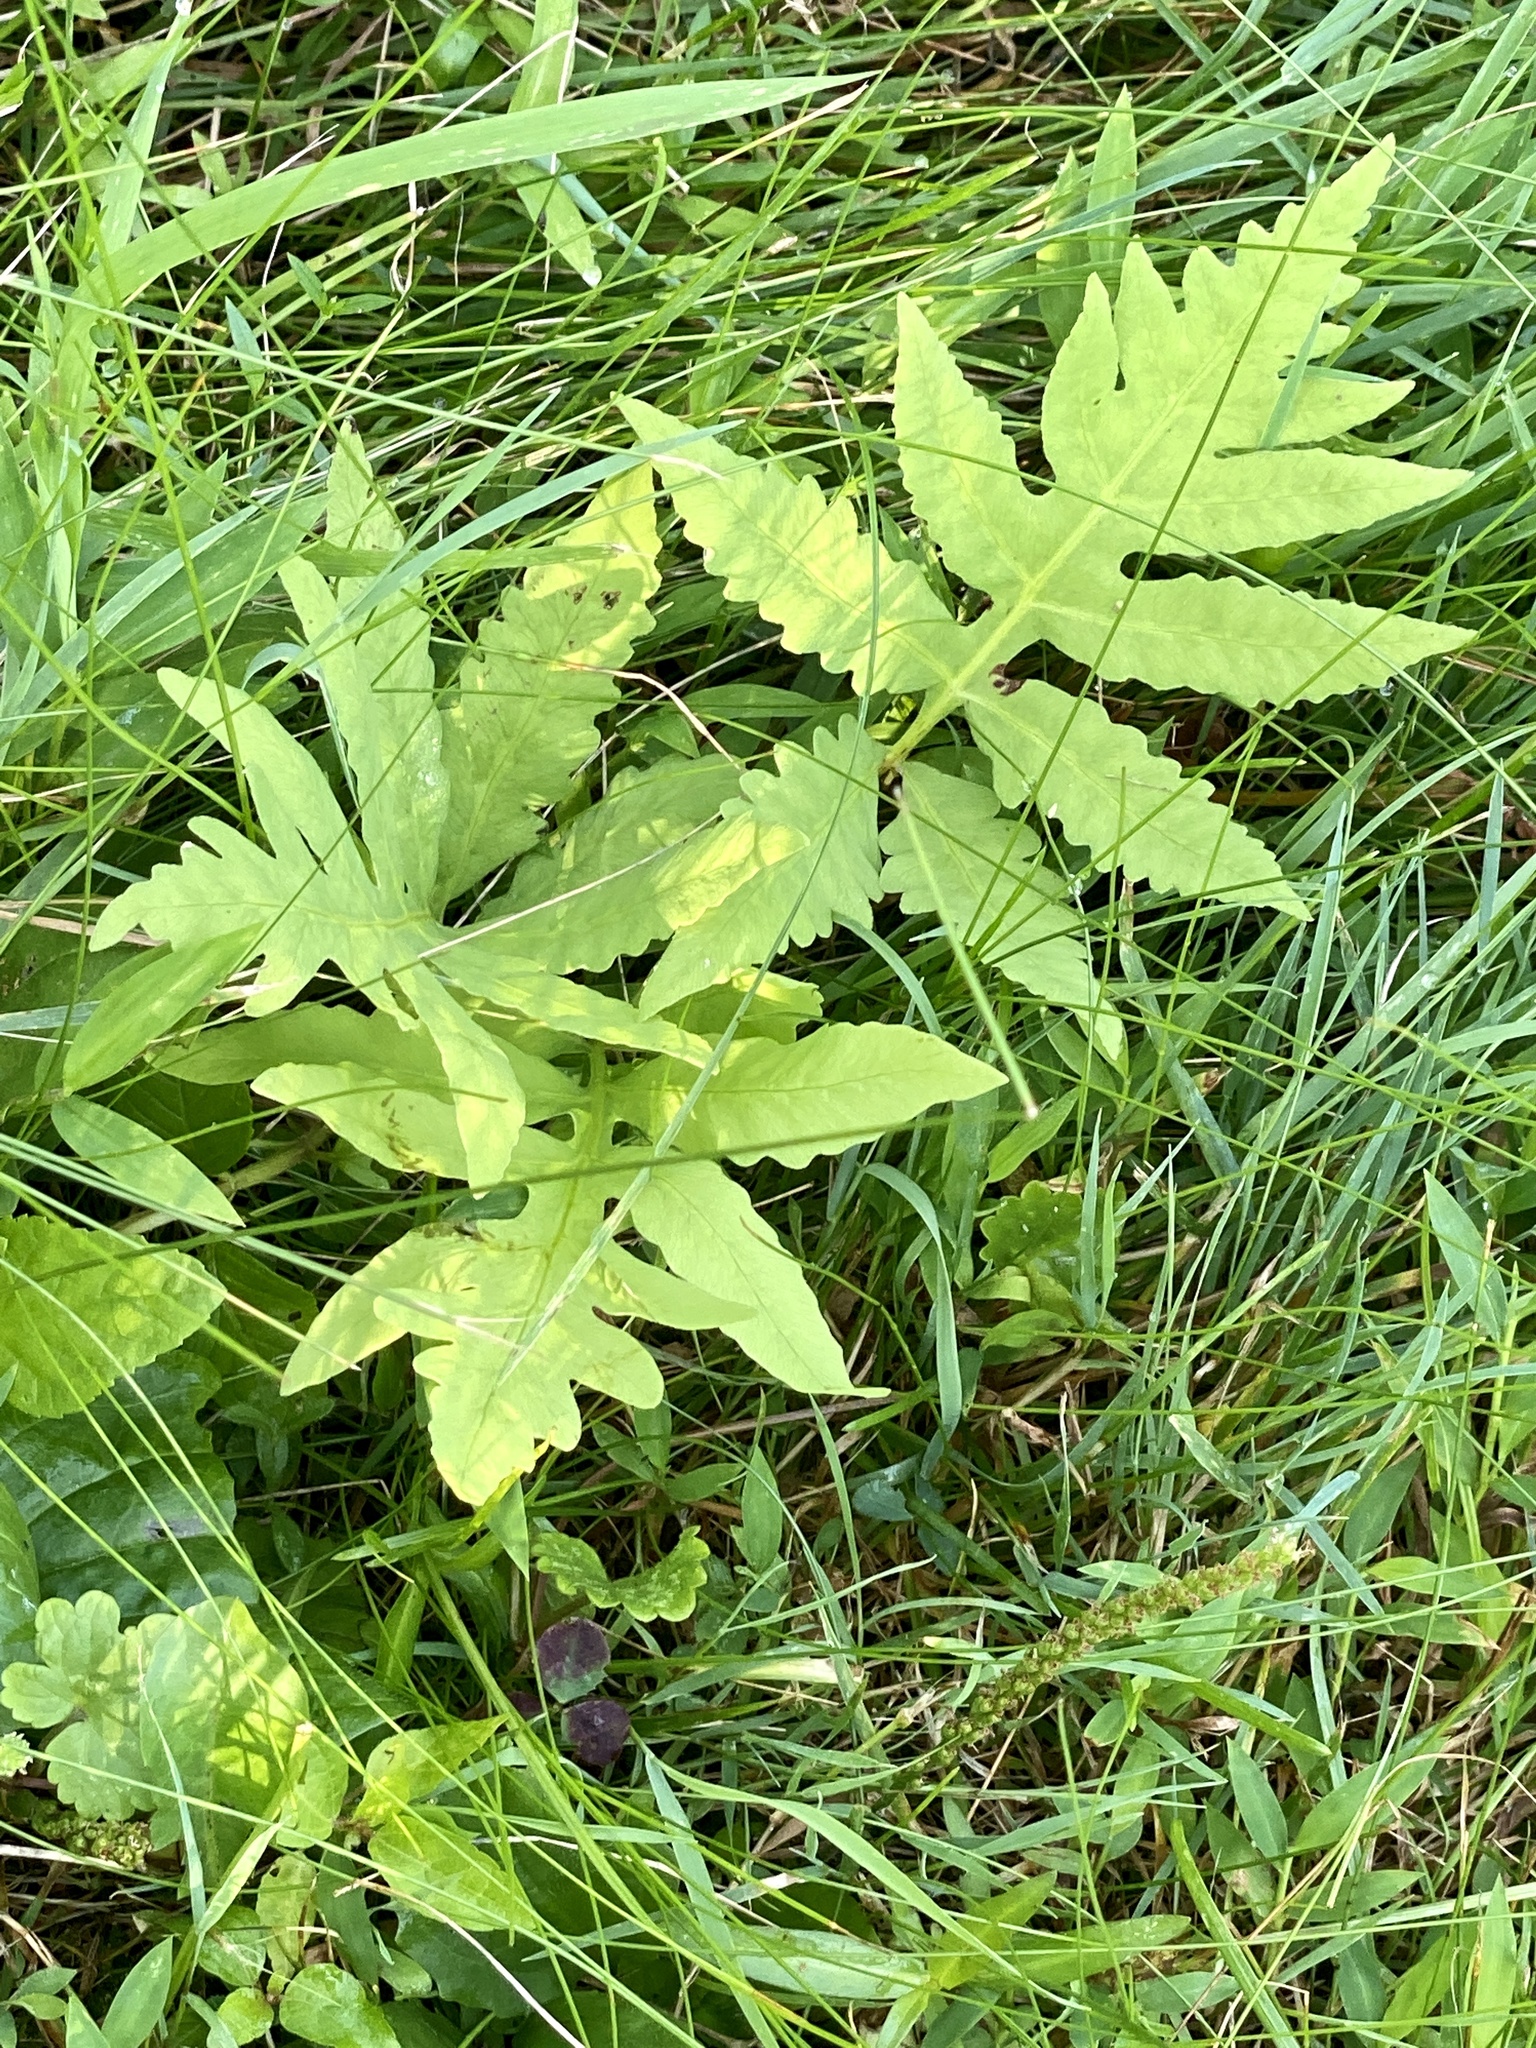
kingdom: Plantae
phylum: Tracheophyta
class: Polypodiopsida
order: Polypodiales
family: Onocleaceae
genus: Onoclea
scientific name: Onoclea sensibilis
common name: Sensitive fern
